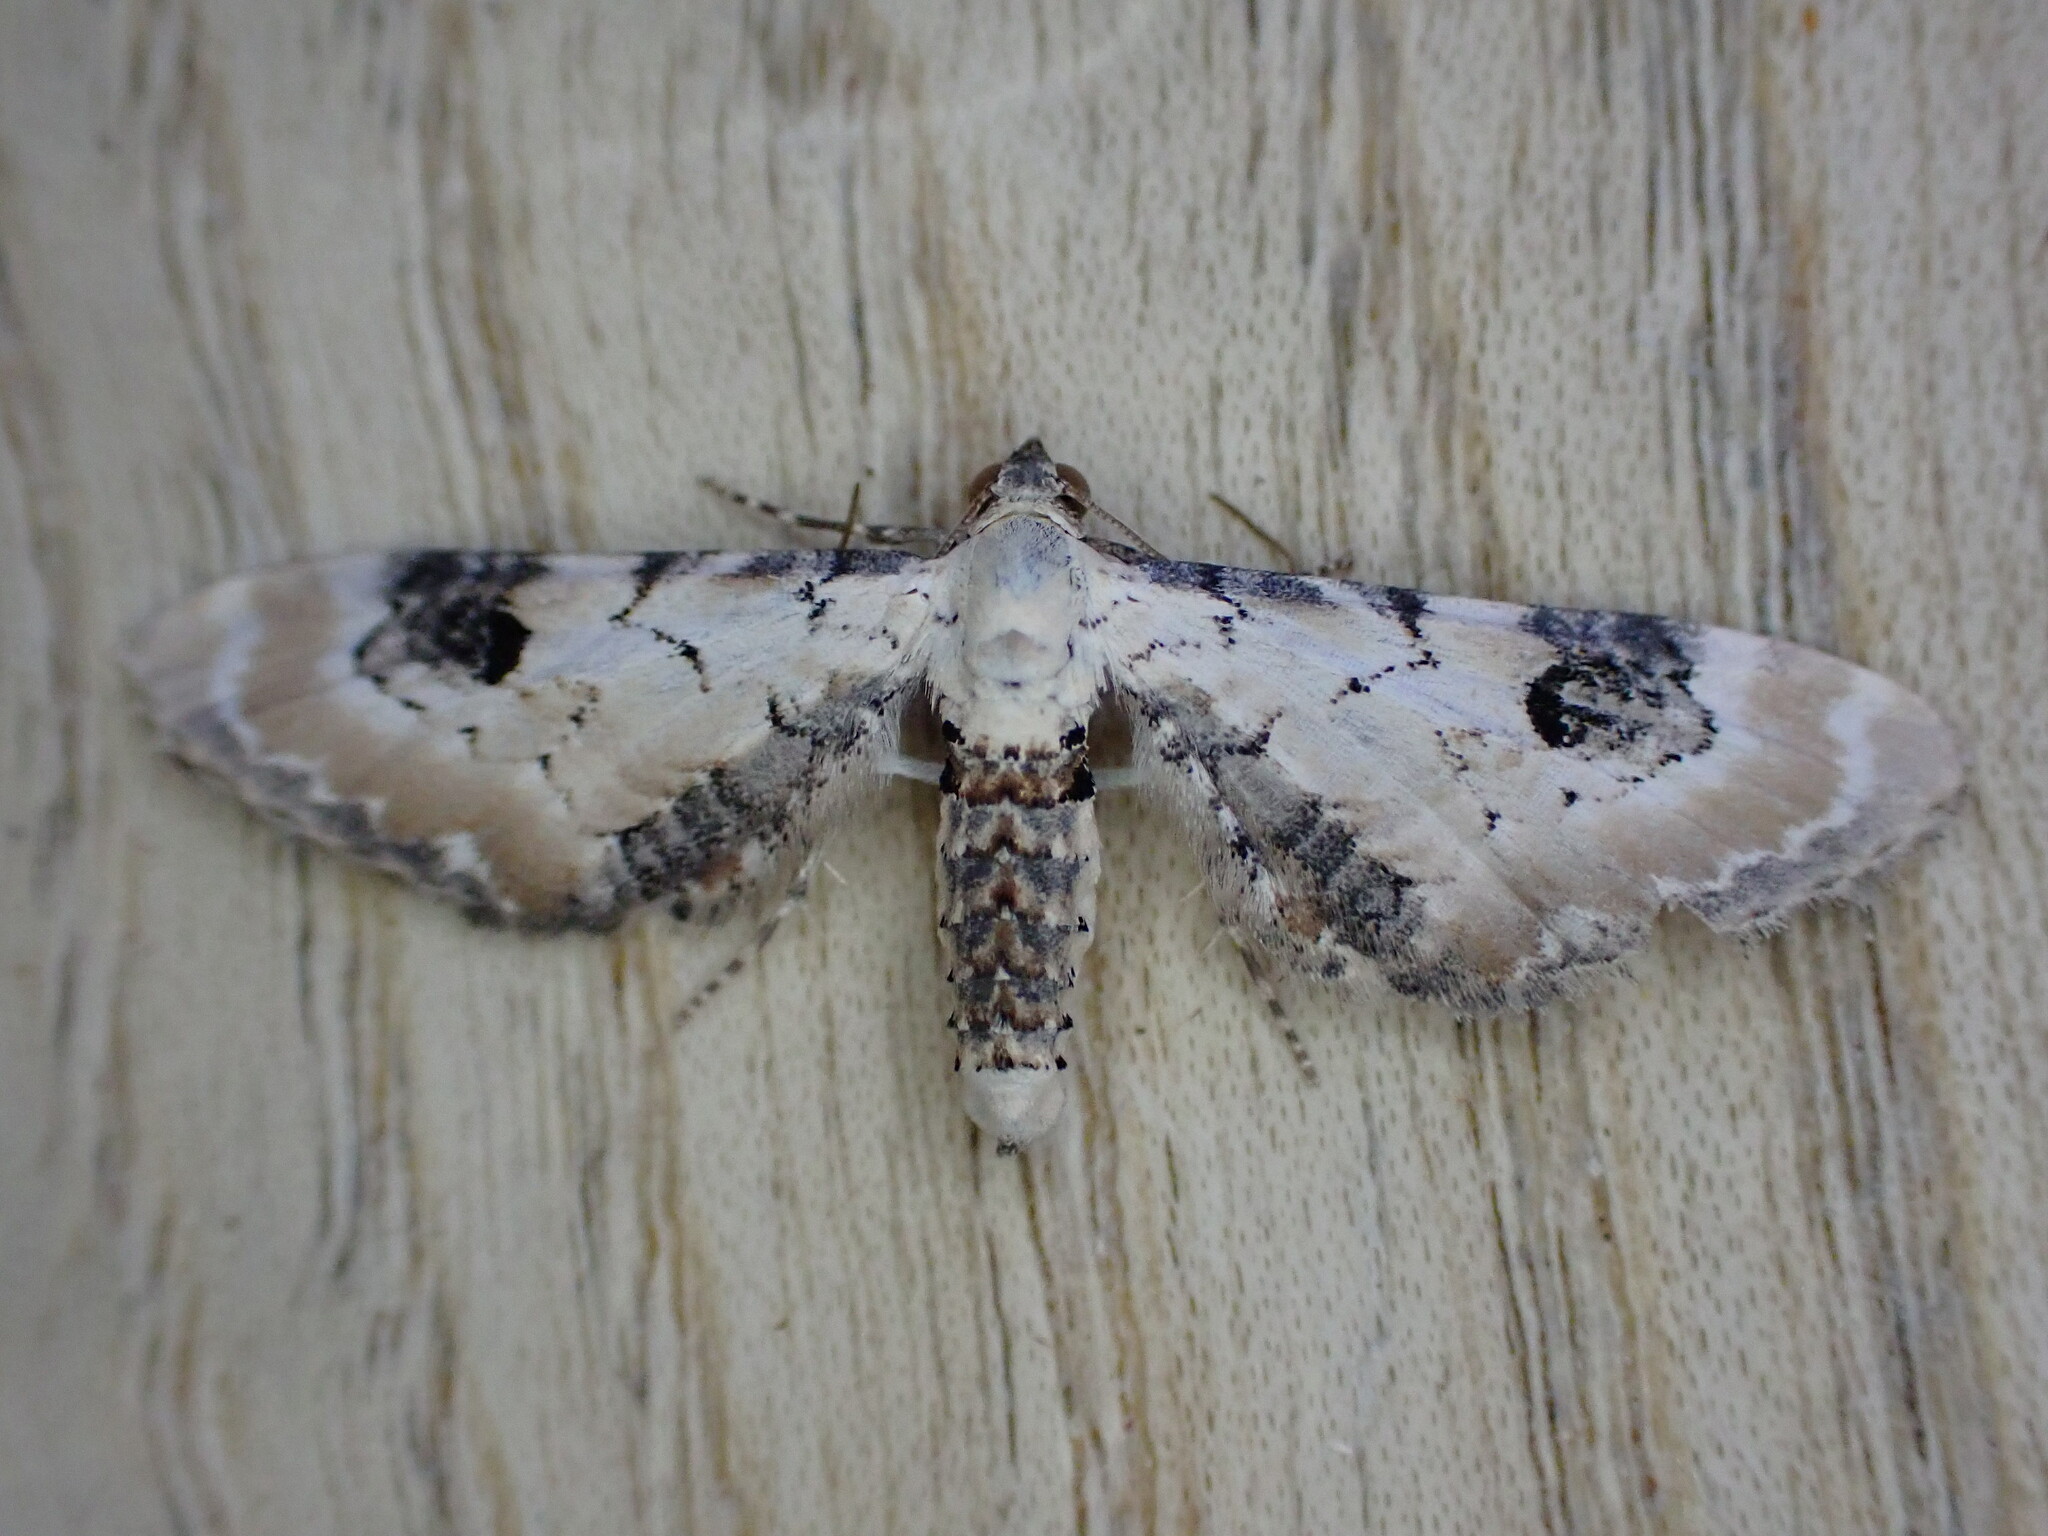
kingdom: Animalia
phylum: Arthropoda
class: Insecta
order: Lepidoptera
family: Geometridae
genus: Eupithecia
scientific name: Eupithecia centaureata
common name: Lime-speck pug
